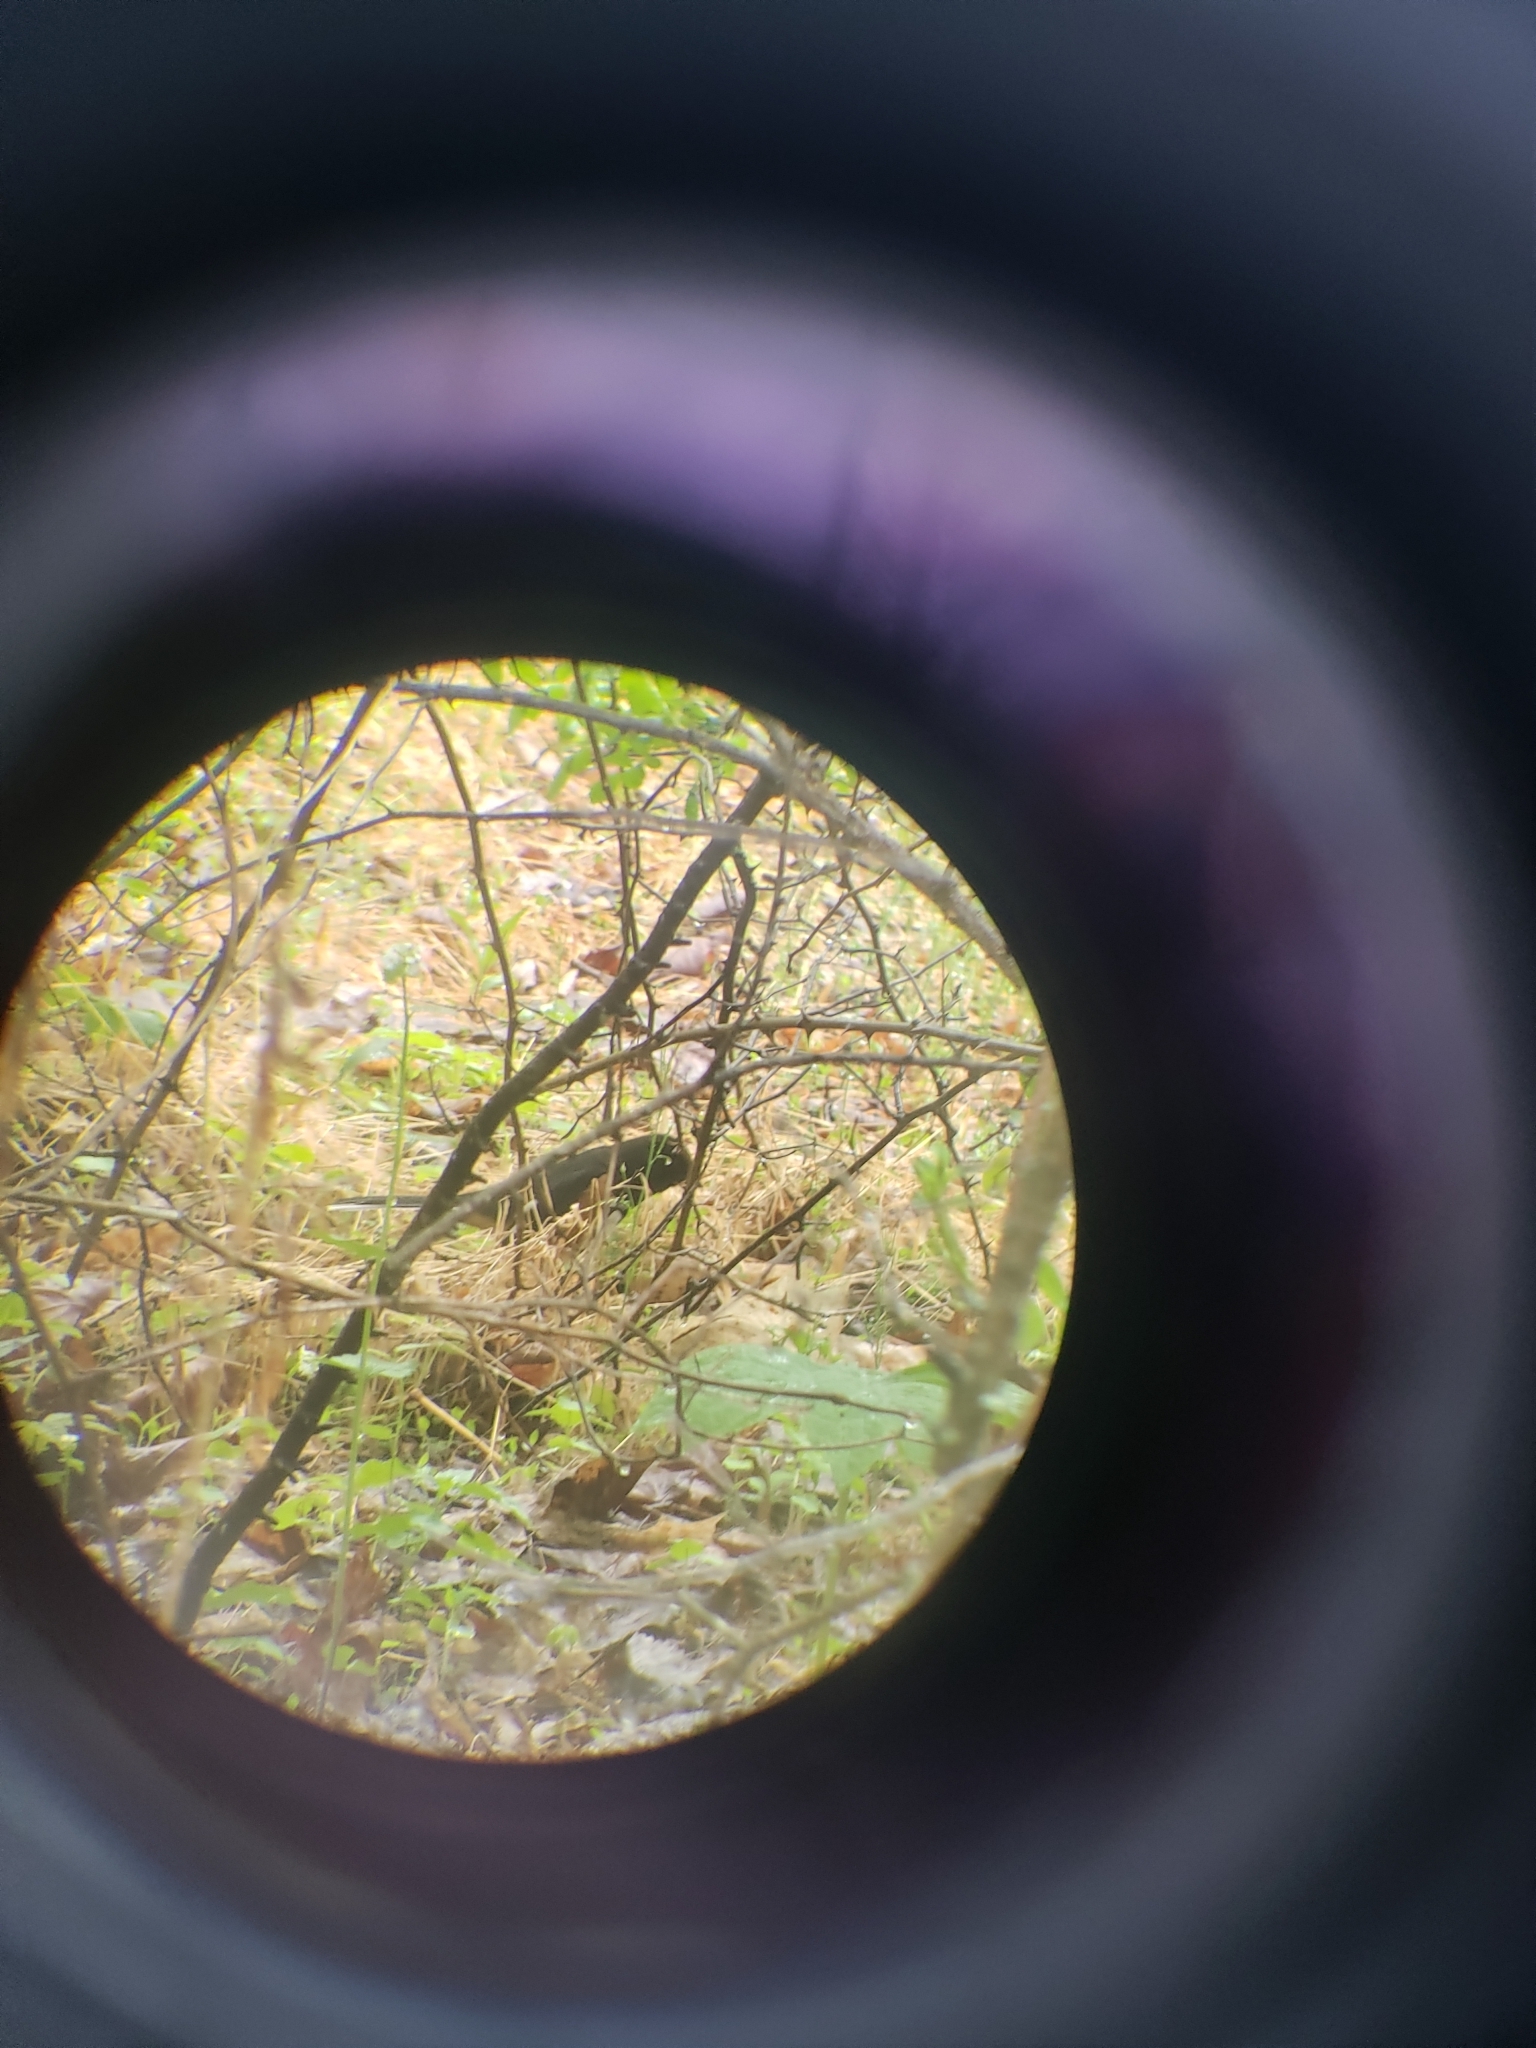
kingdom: Animalia
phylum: Chordata
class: Aves
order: Passeriformes
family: Passerellidae
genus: Pipilo
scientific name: Pipilo erythrophthalmus
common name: Eastern towhee
